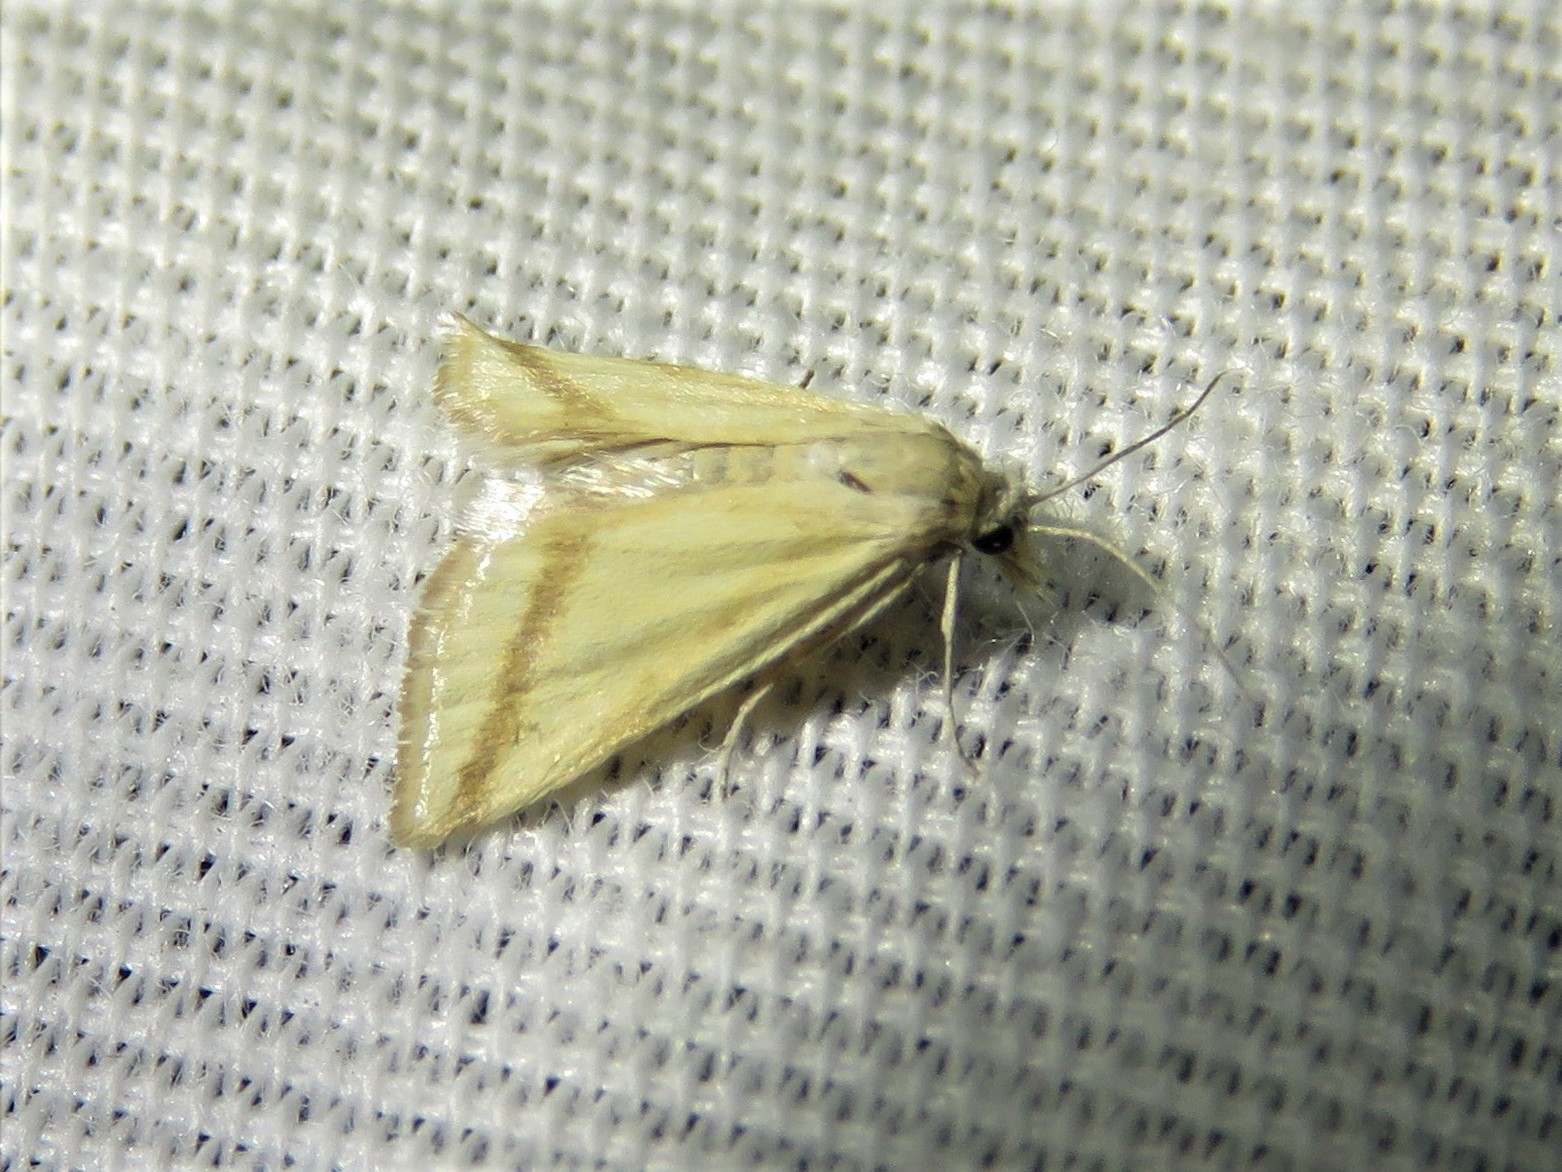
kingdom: Animalia
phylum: Arthropoda
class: Insecta
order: Lepidoptera
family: Crambidae
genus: Microtheoris
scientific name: Microtheoris vibicalis
